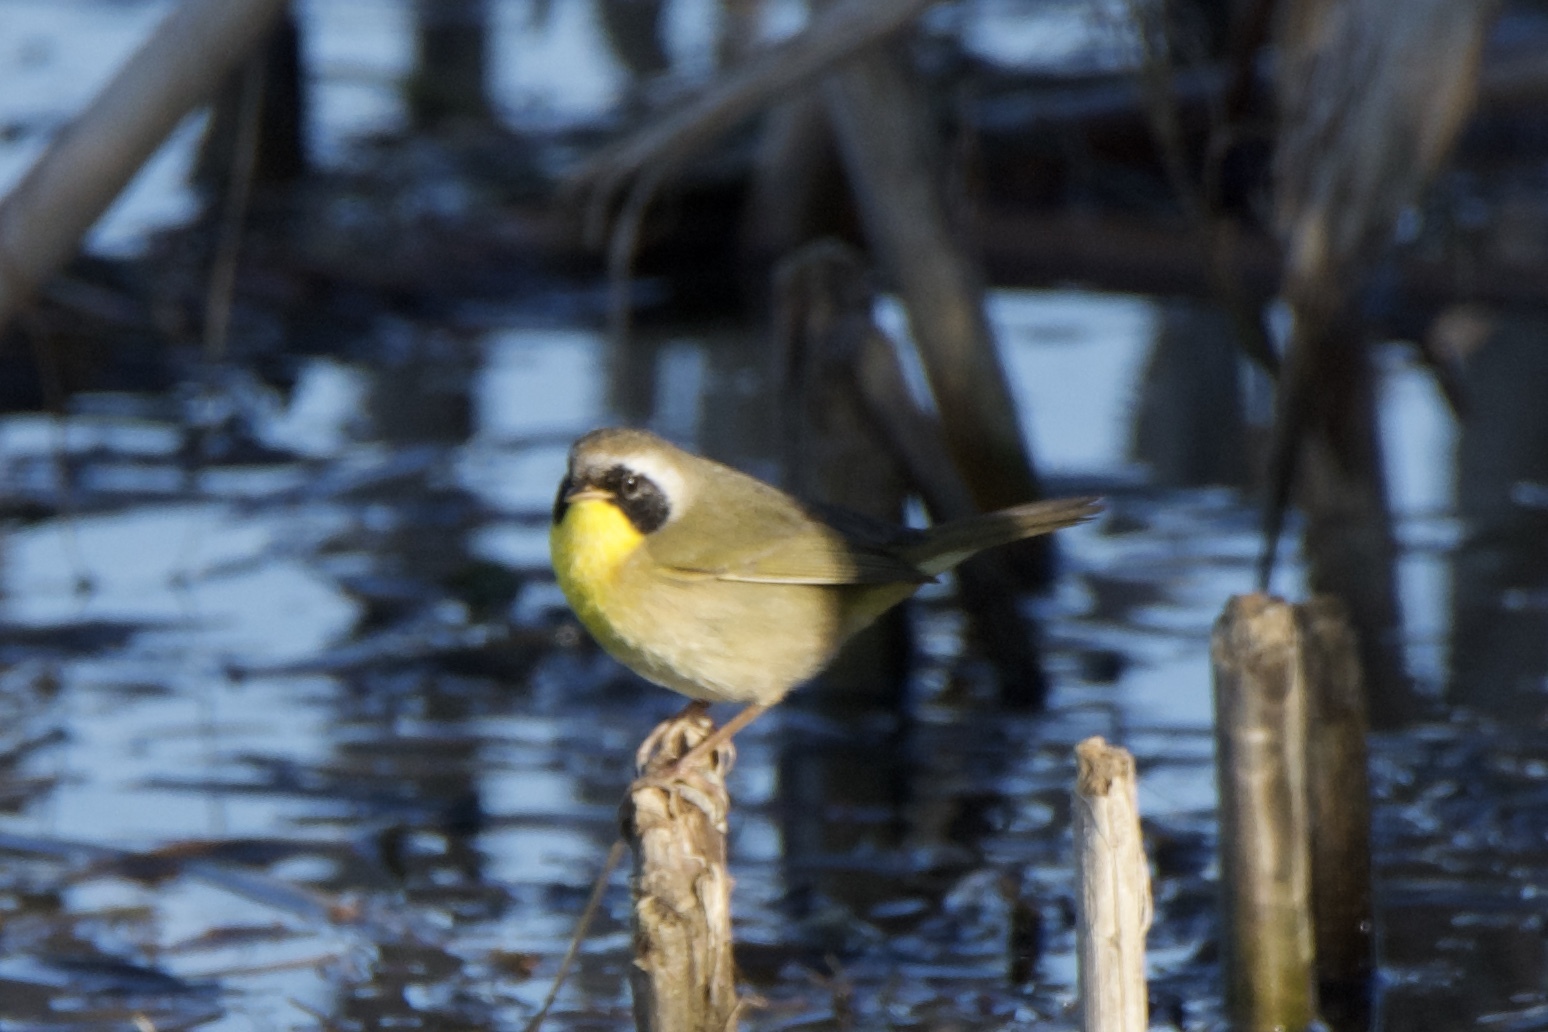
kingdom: Animalia
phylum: Chordata
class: Aves
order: Passeriformes
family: Parulidae
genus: Geothlypis
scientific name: Geothlypis trichas
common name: Common yellowthroat
